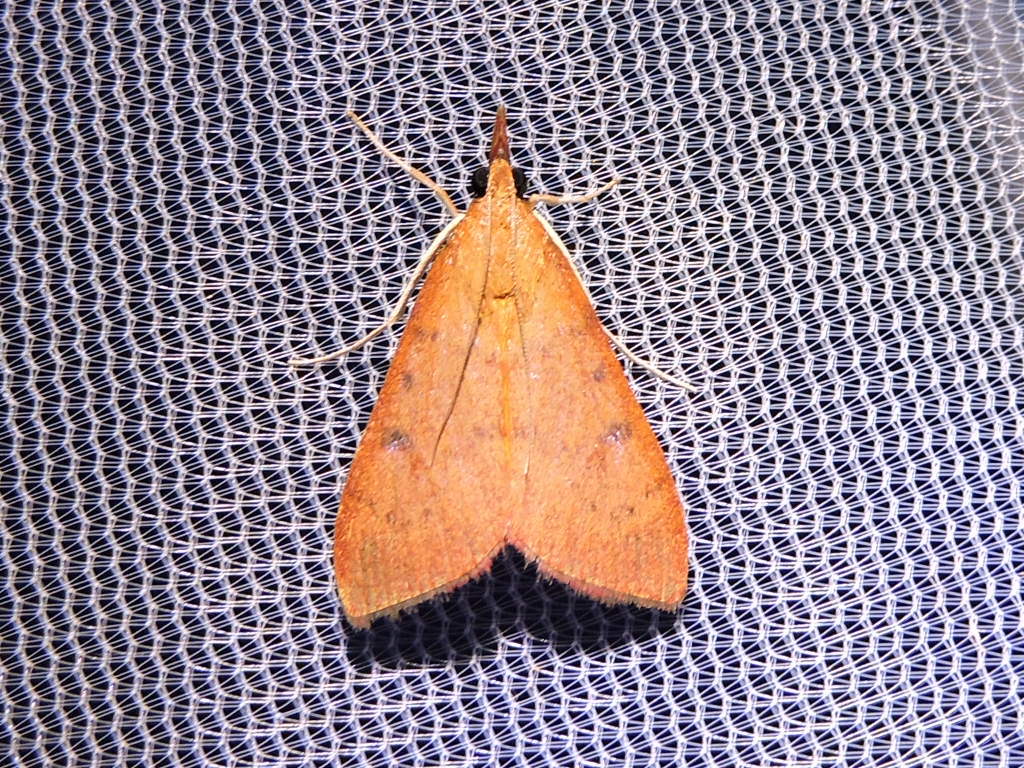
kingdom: Animalia
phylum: Arthropoda
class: Insecta
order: Lepidoptera
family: Crambidae
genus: Uresiphita
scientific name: Uresiphita reversalis
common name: Genista broom moth
